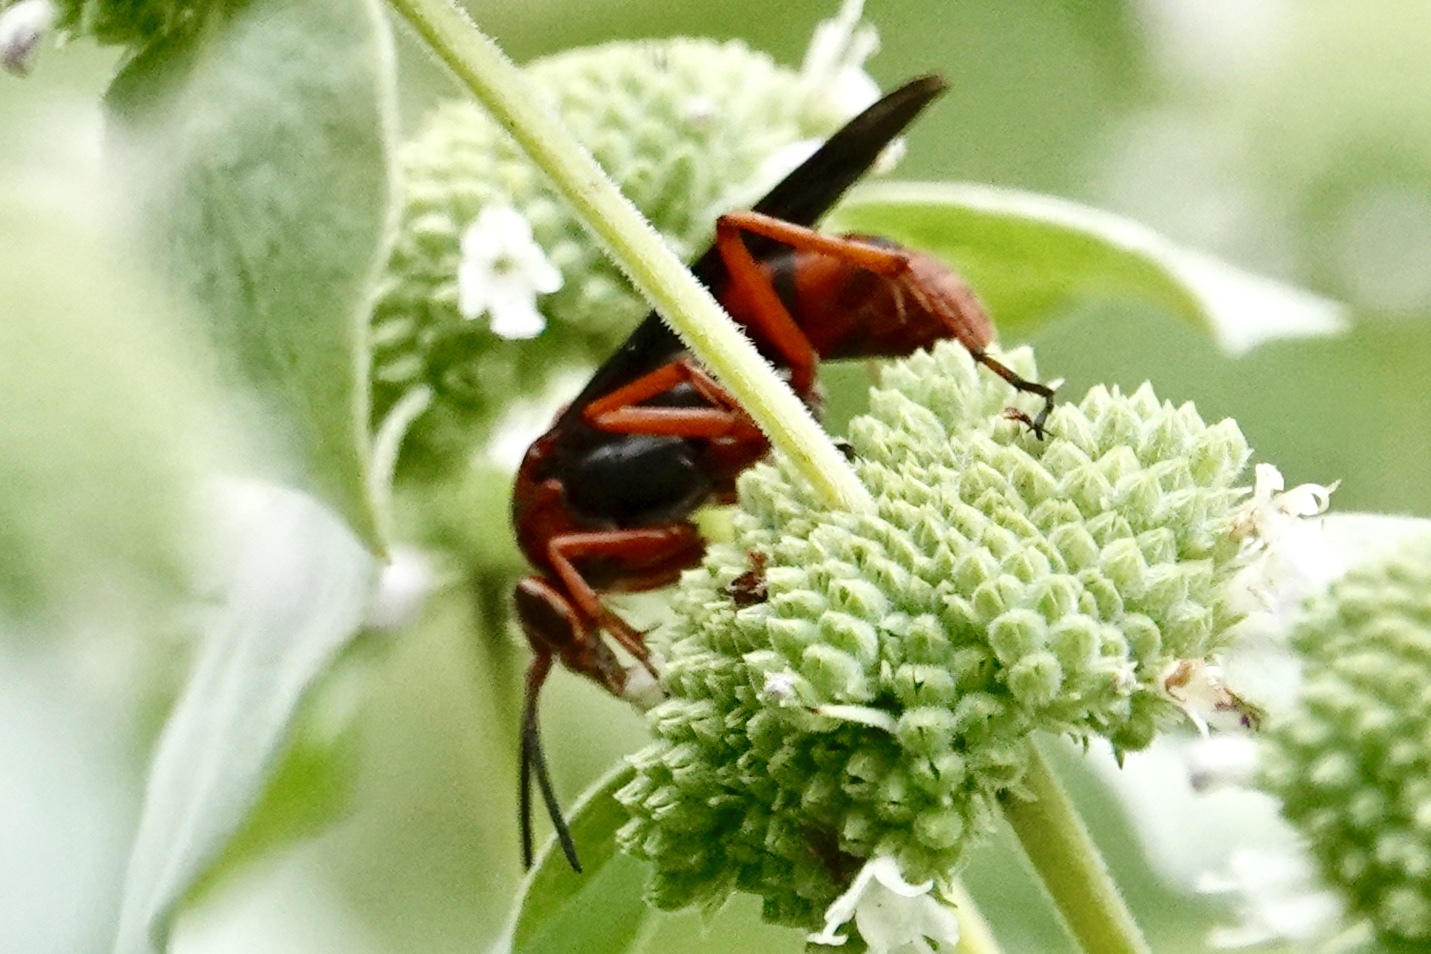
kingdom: Animalia
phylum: Arthropoda
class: Insecta
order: Hymenoptera
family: Pompilidae
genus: Tachypompilus
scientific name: Tachypompilus ferrugineus
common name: Rusty spider wasp
